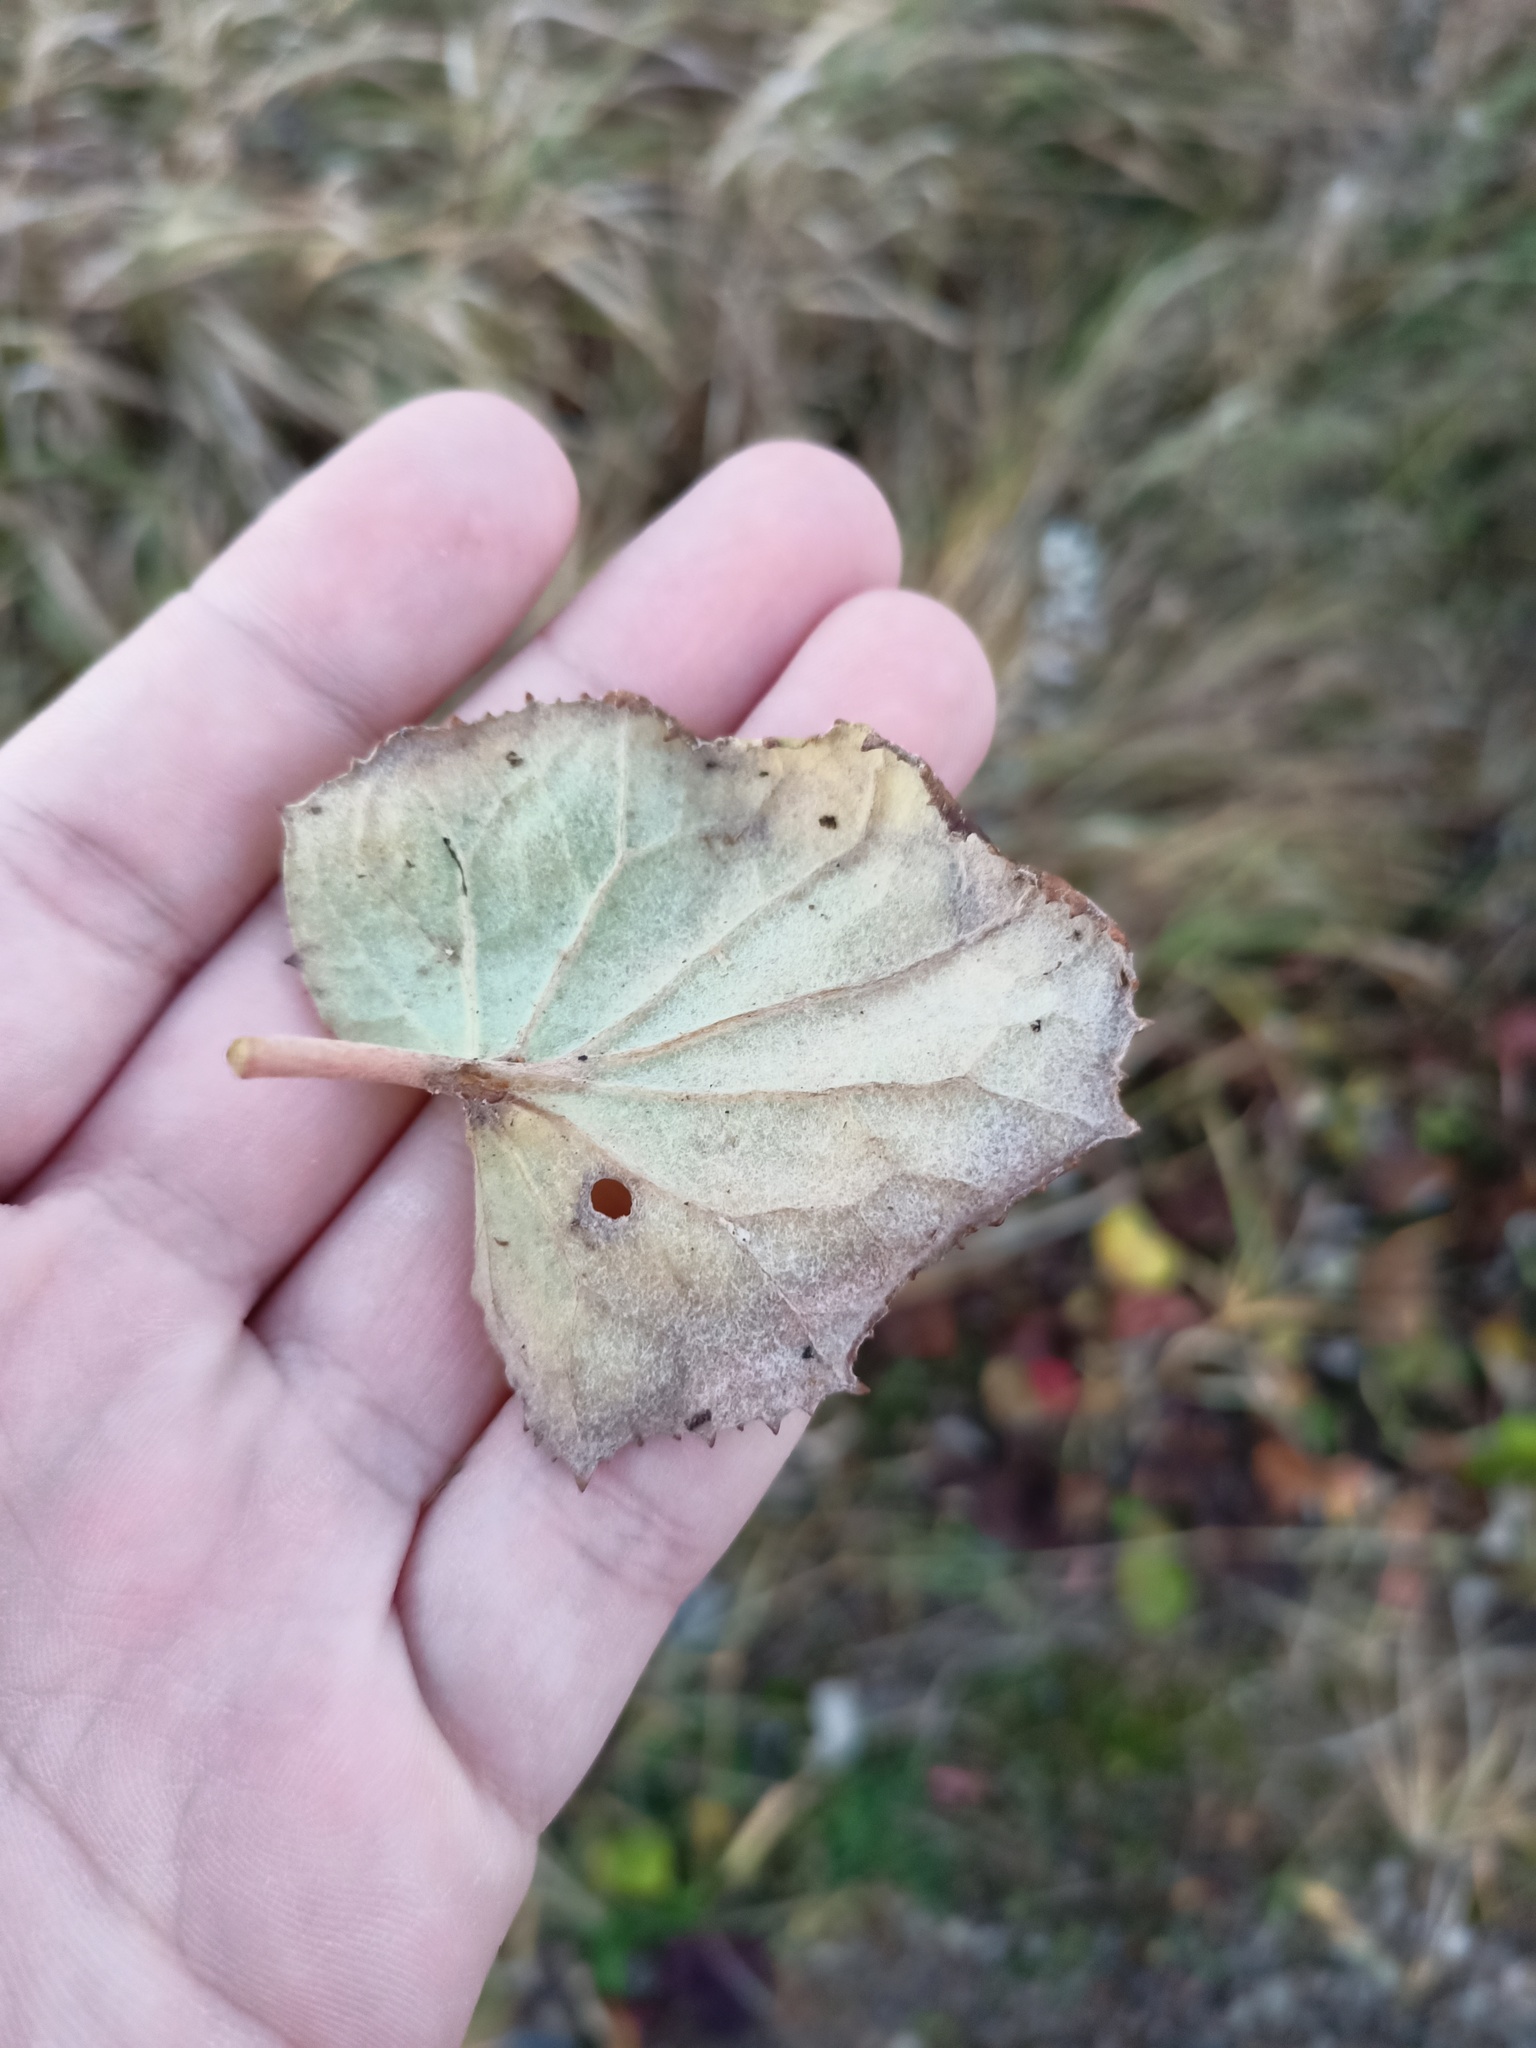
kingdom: Plantae
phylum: Tracheophyta
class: Magnoliopsida
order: Asterales
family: Asteraceae
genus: Tussilago
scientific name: Tussilago farfara
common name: Coltsfoot
